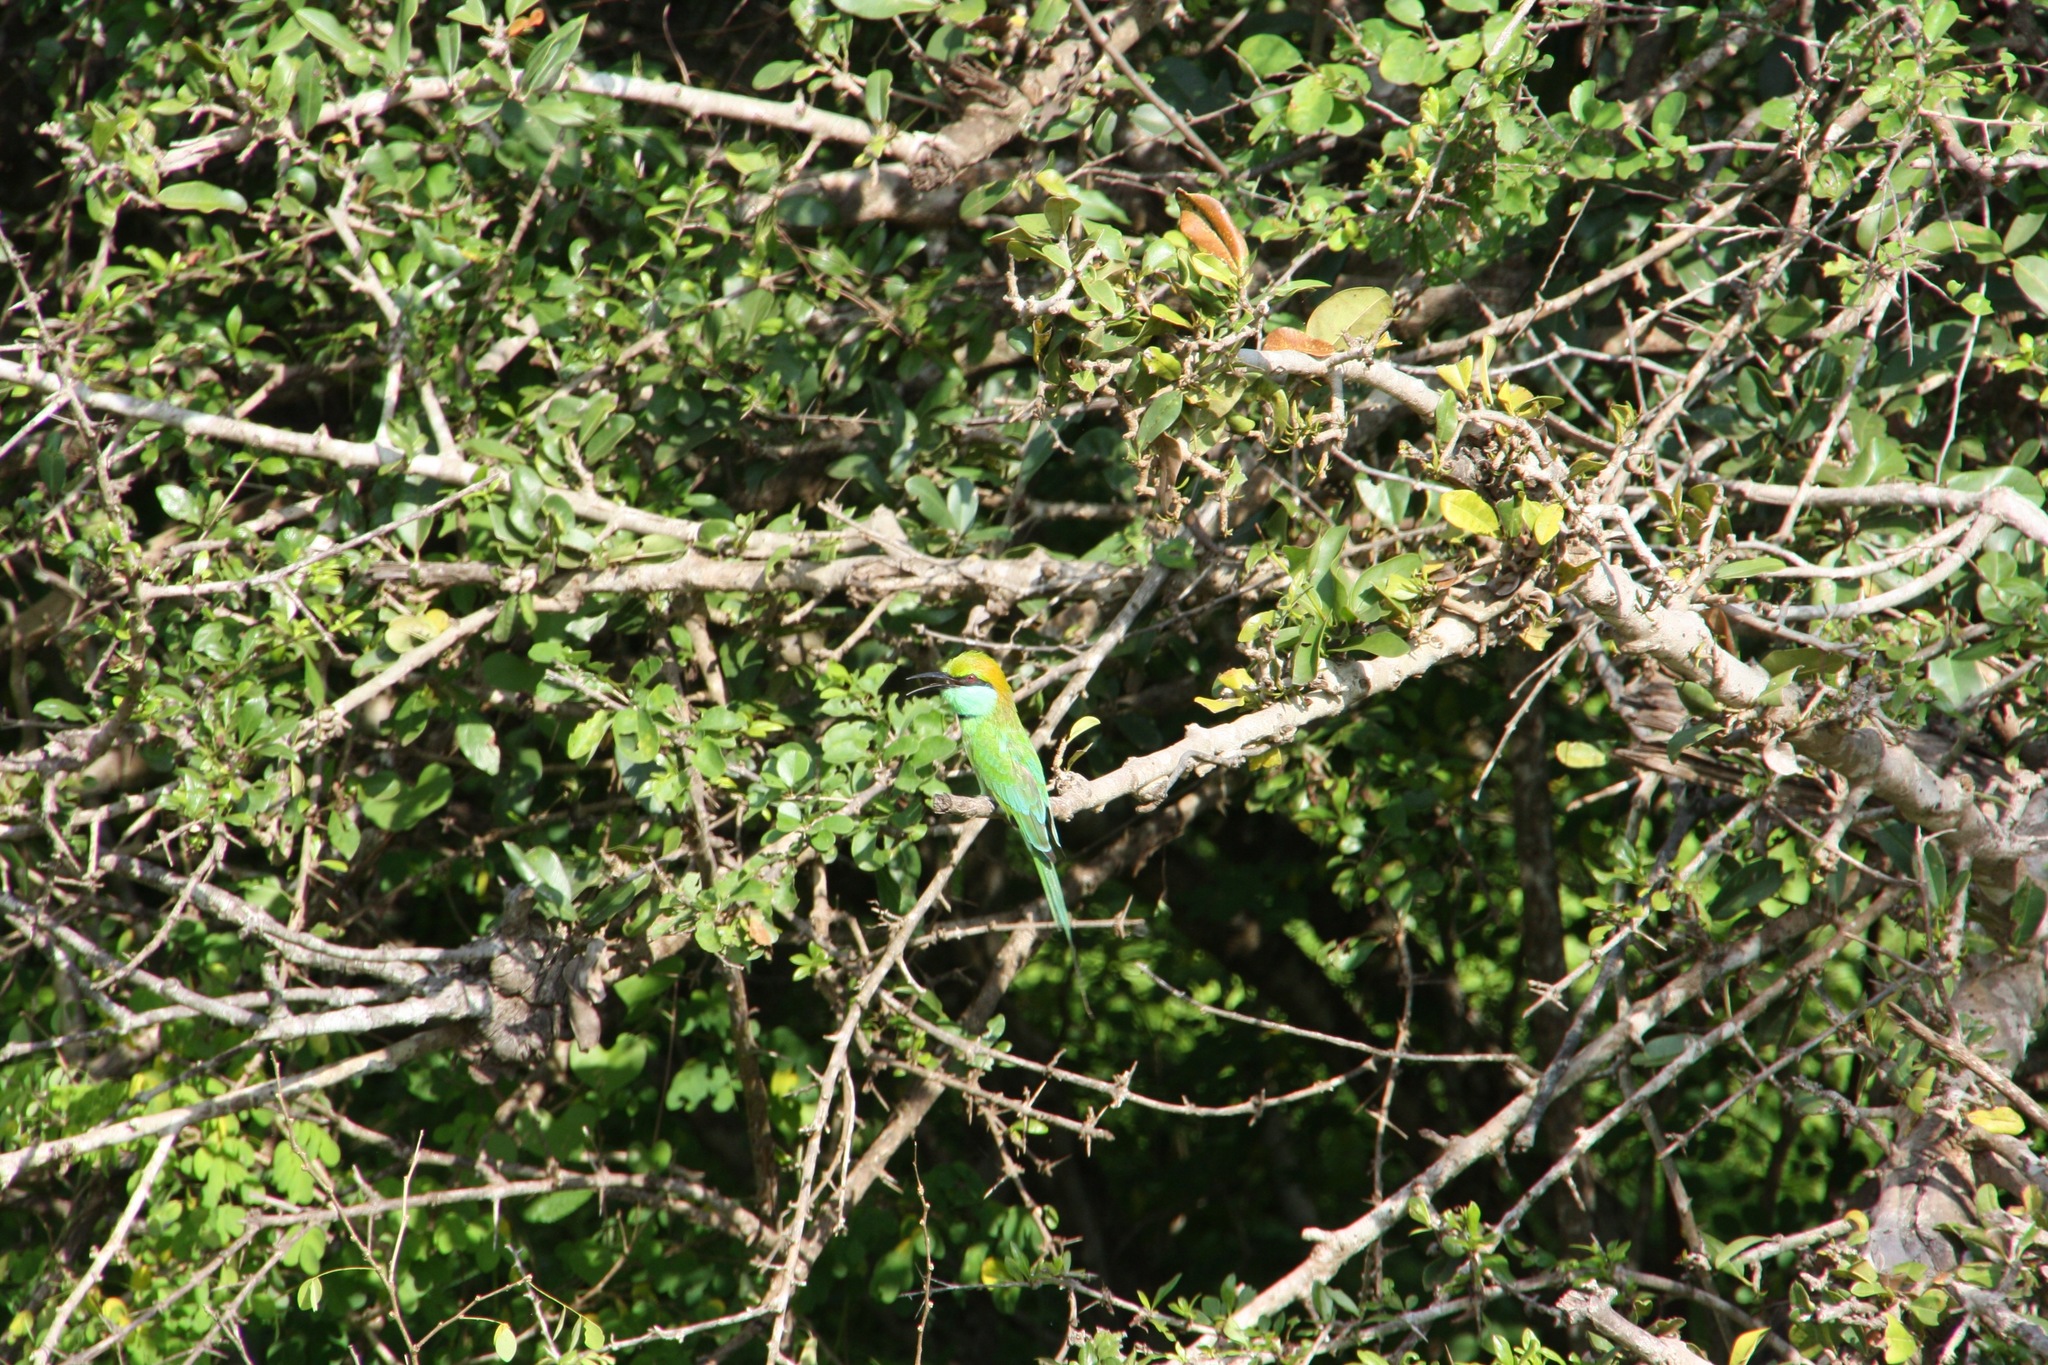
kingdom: Animalia
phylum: Chordata
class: Aves
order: Coraciiformes
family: Meropidae
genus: Merops
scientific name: Merops orientalis
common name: Green bee-eater
